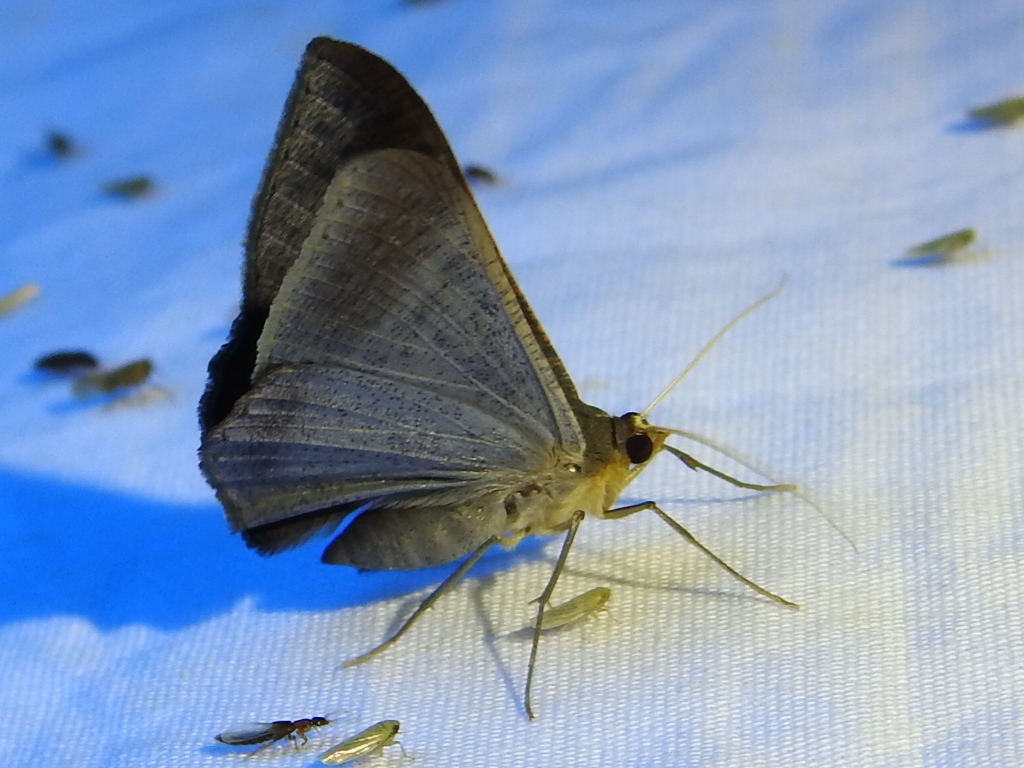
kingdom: Animalia
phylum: Arthropoda
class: Insecta
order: Lepidoptera
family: Geometridae
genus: Sphacelodes
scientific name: Sphacelodes vulneraria
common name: Looper moth
